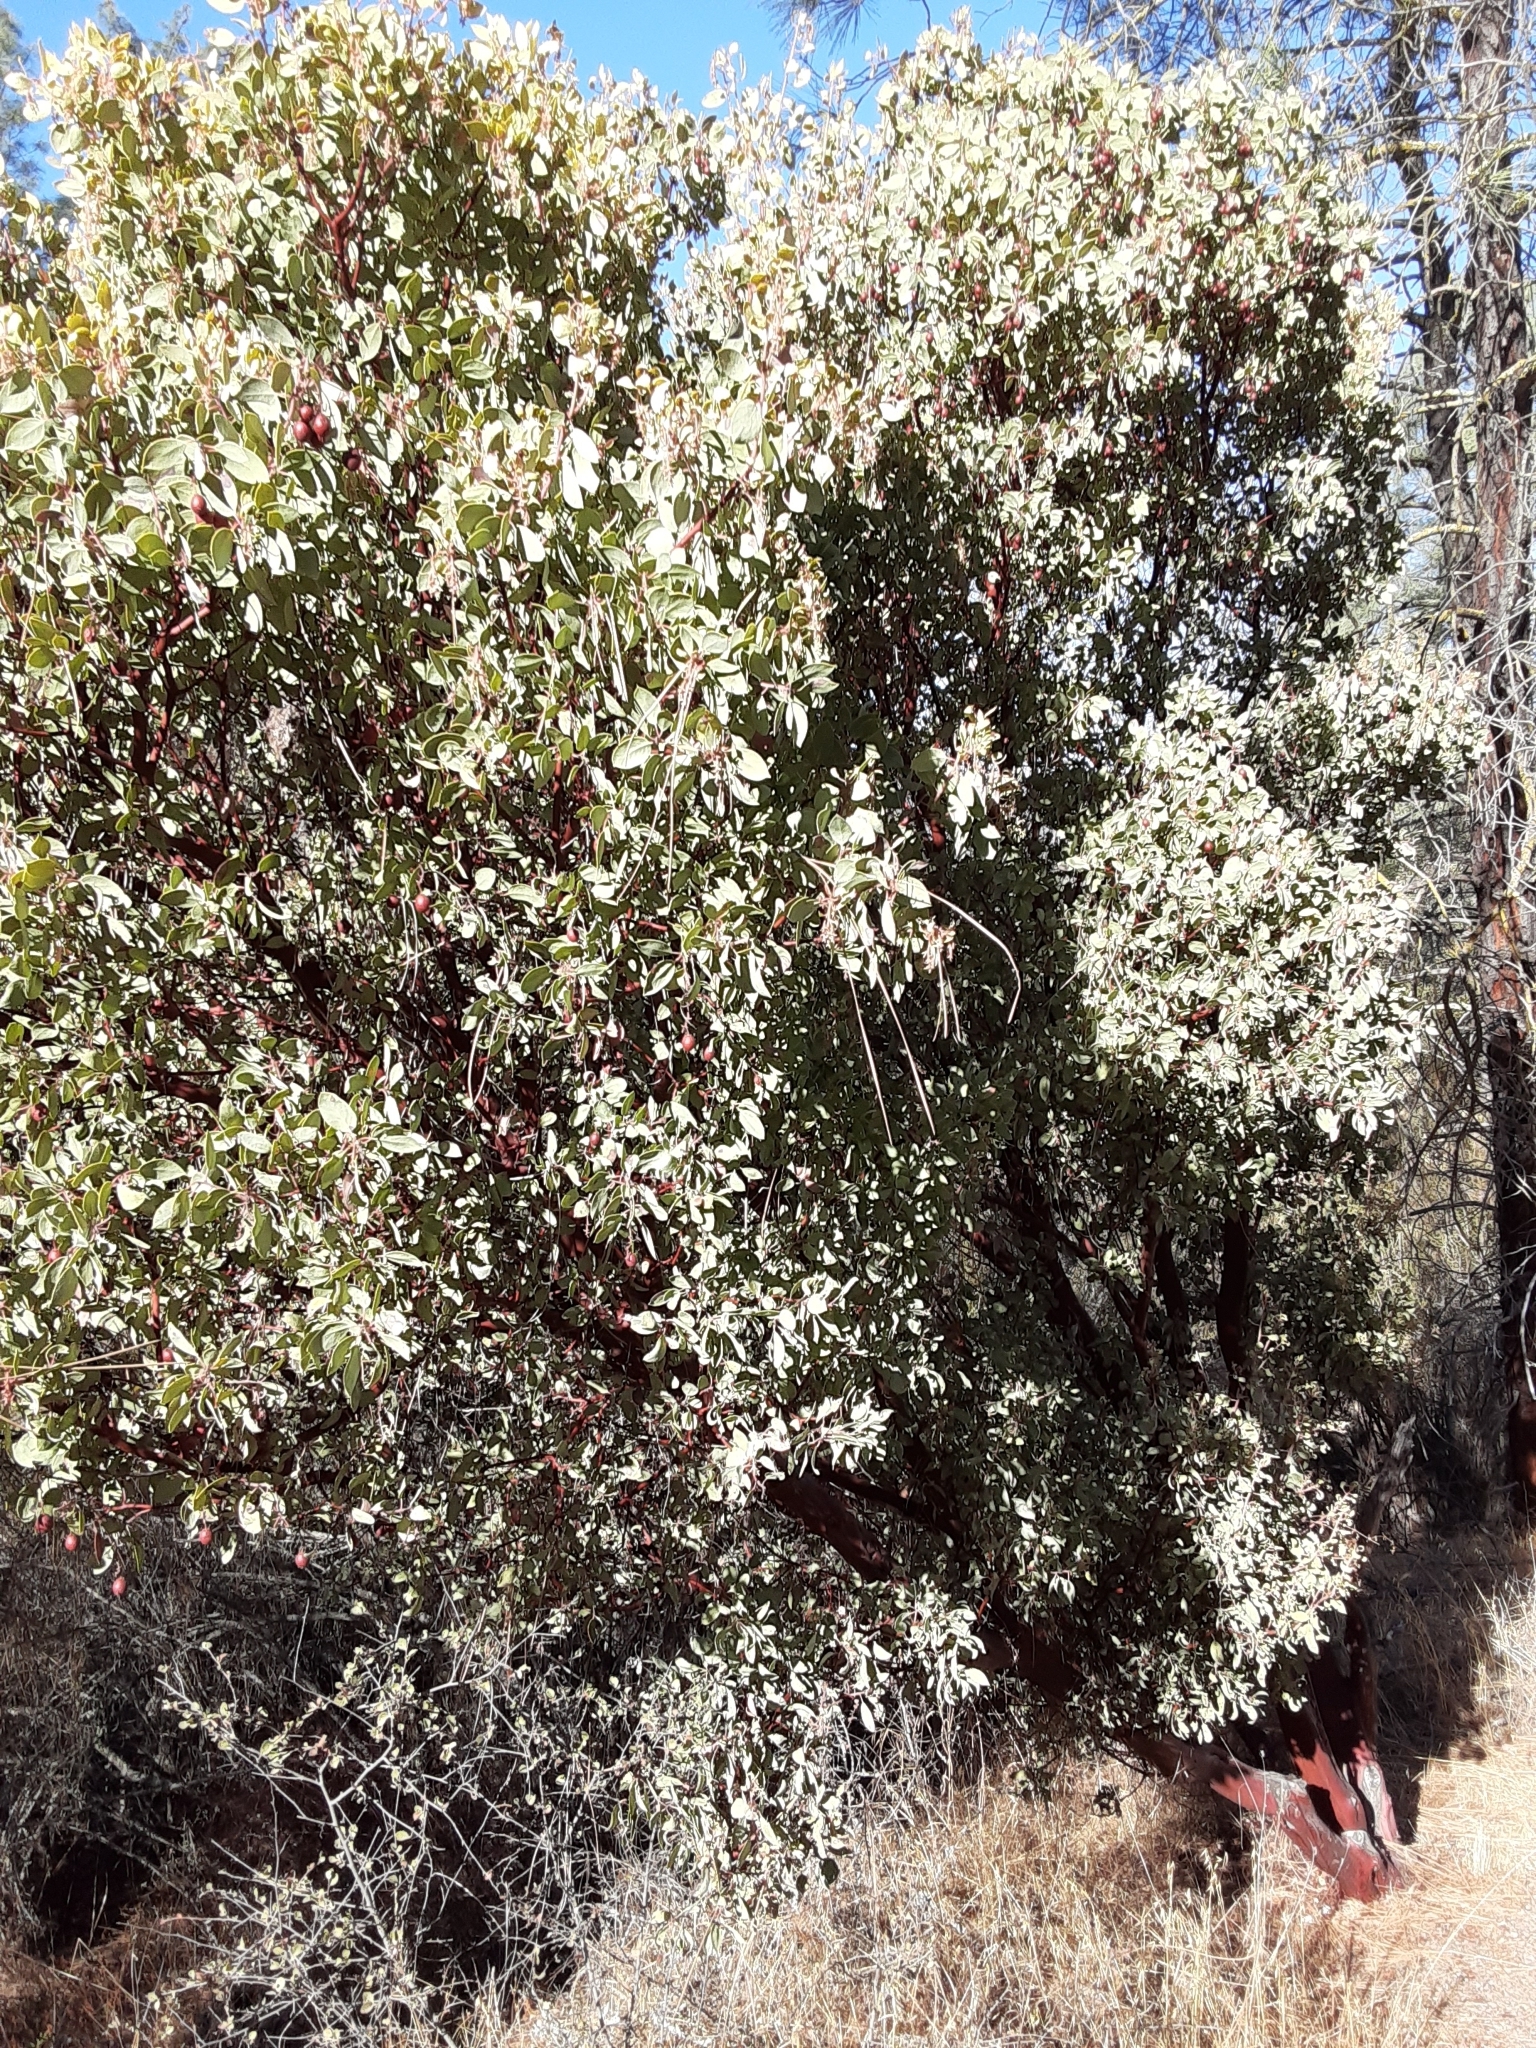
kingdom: Plantae
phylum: Tracheophyta
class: Magnoliopsida
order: Ericales
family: Ericaceae
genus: Arctostaphylos
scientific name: Arctostaphylos glauca
